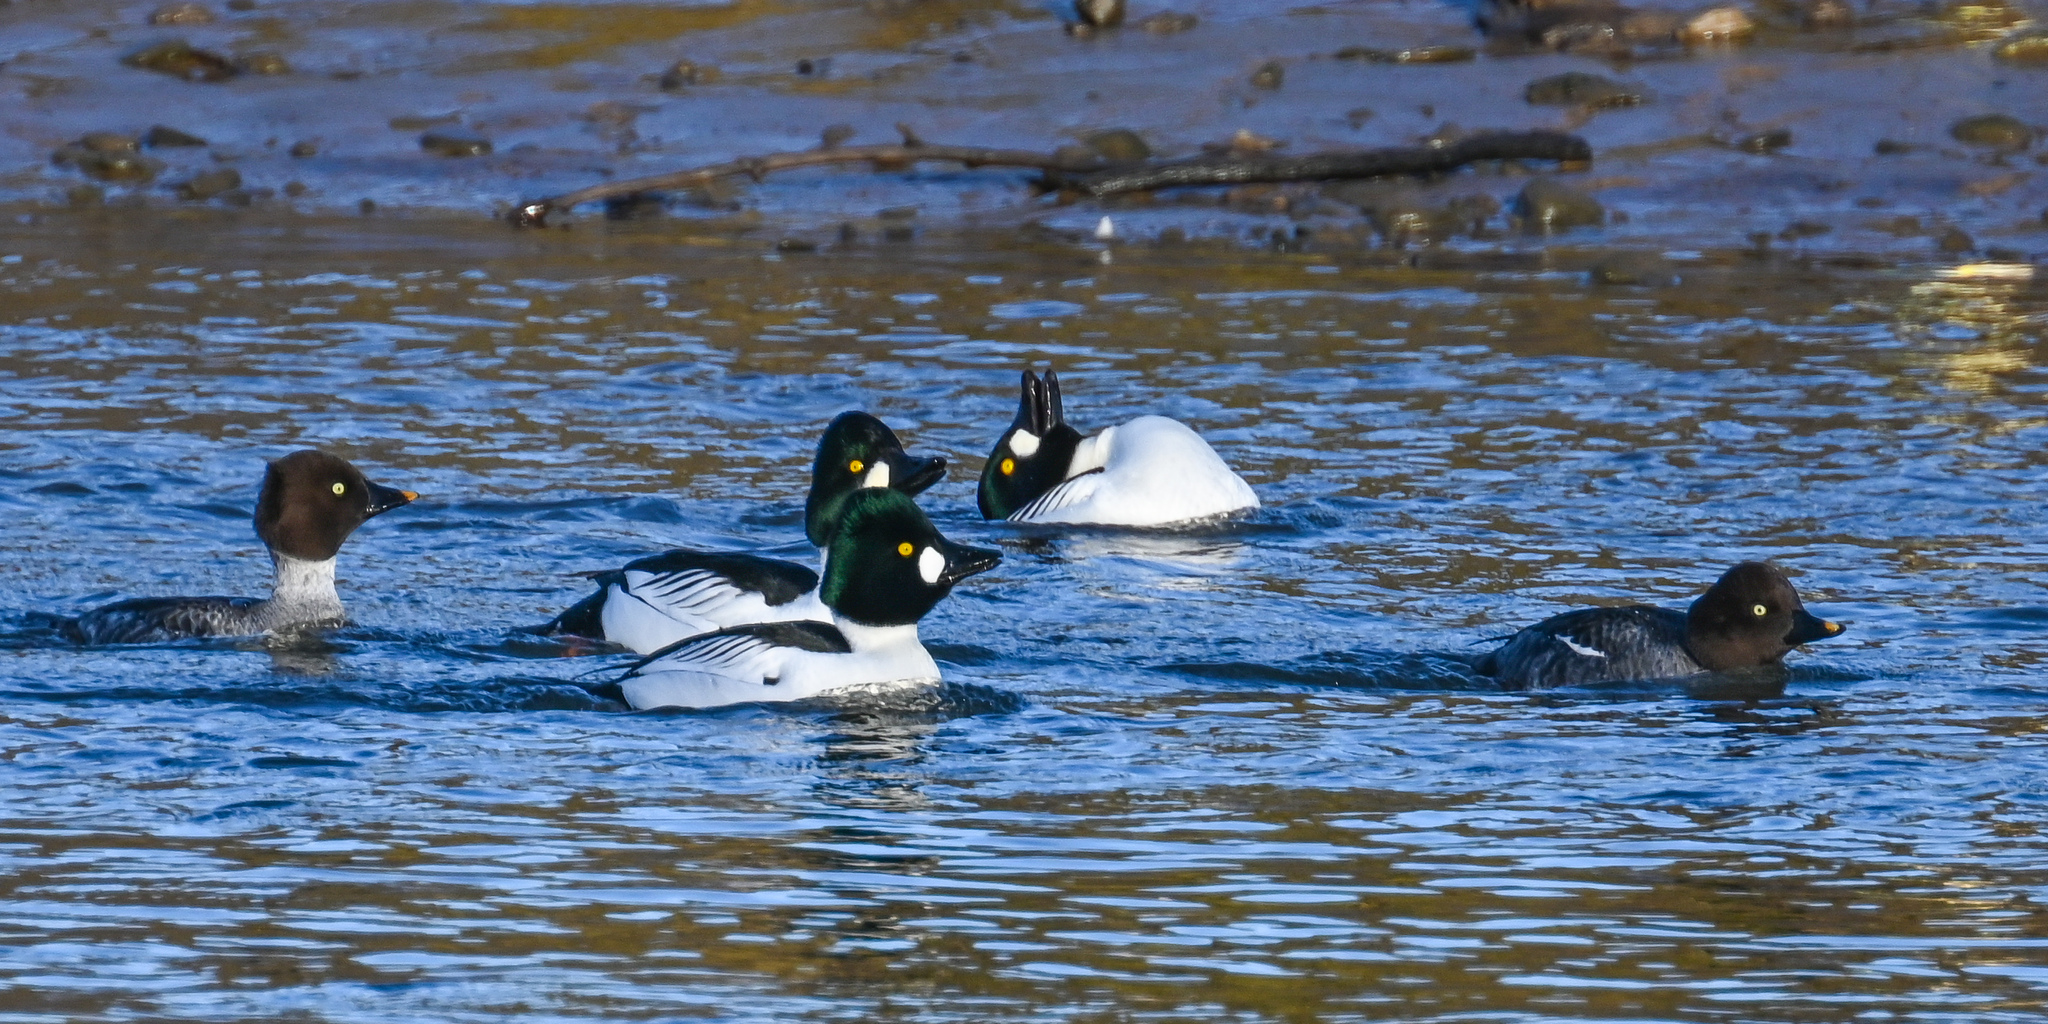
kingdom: Animalia
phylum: Chordata
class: Aves
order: Anseriformes
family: Anatidae
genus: Bucephala
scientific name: Bucephala clangula
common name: Common goldeneye
